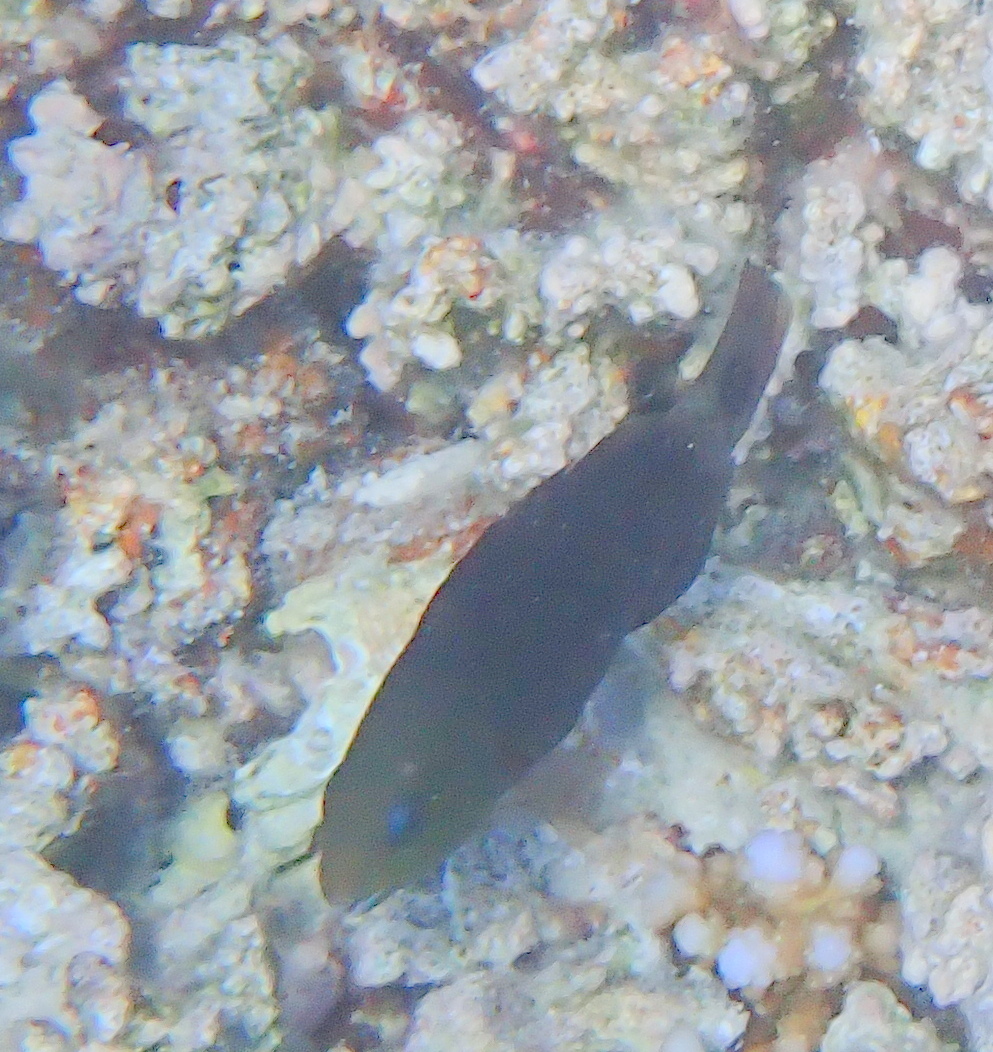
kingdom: Animalia
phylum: Chordata
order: Perciformes
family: Scaridae
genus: Chlorurus
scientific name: Chlorurus sordidus
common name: Bullethead parrotfish
